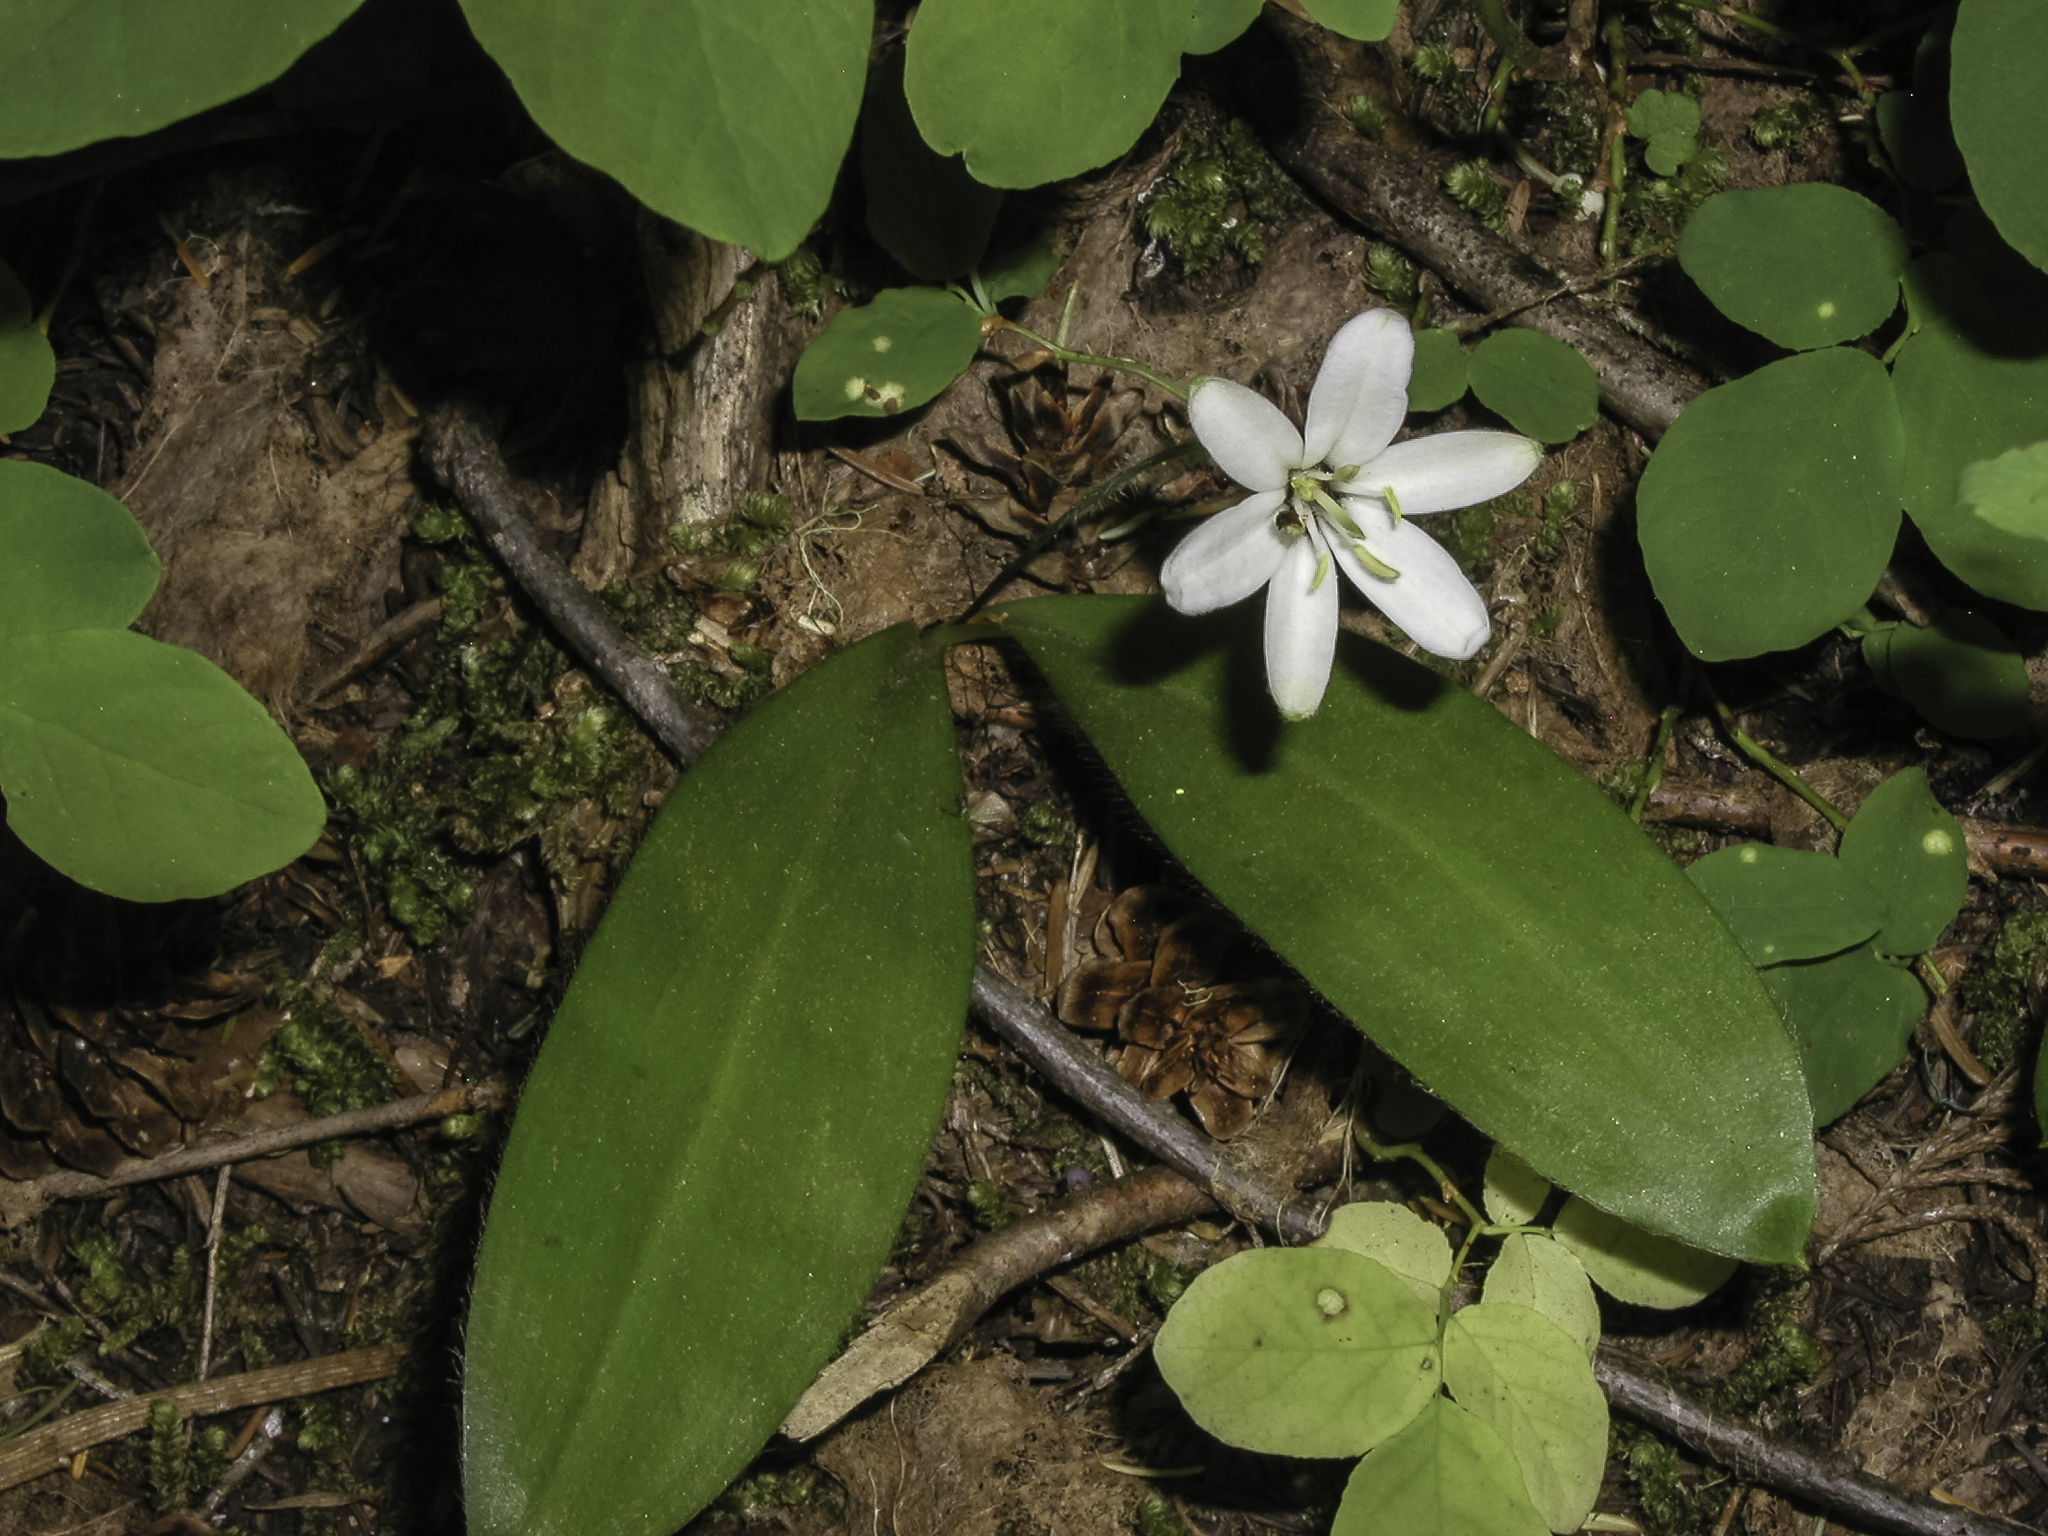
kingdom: Plantae
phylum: Tracheophyta
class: Liliopsida
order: Liliales
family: Liliaceae
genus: Clintonia
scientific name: Clintonia uniflora
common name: Queen's cup
